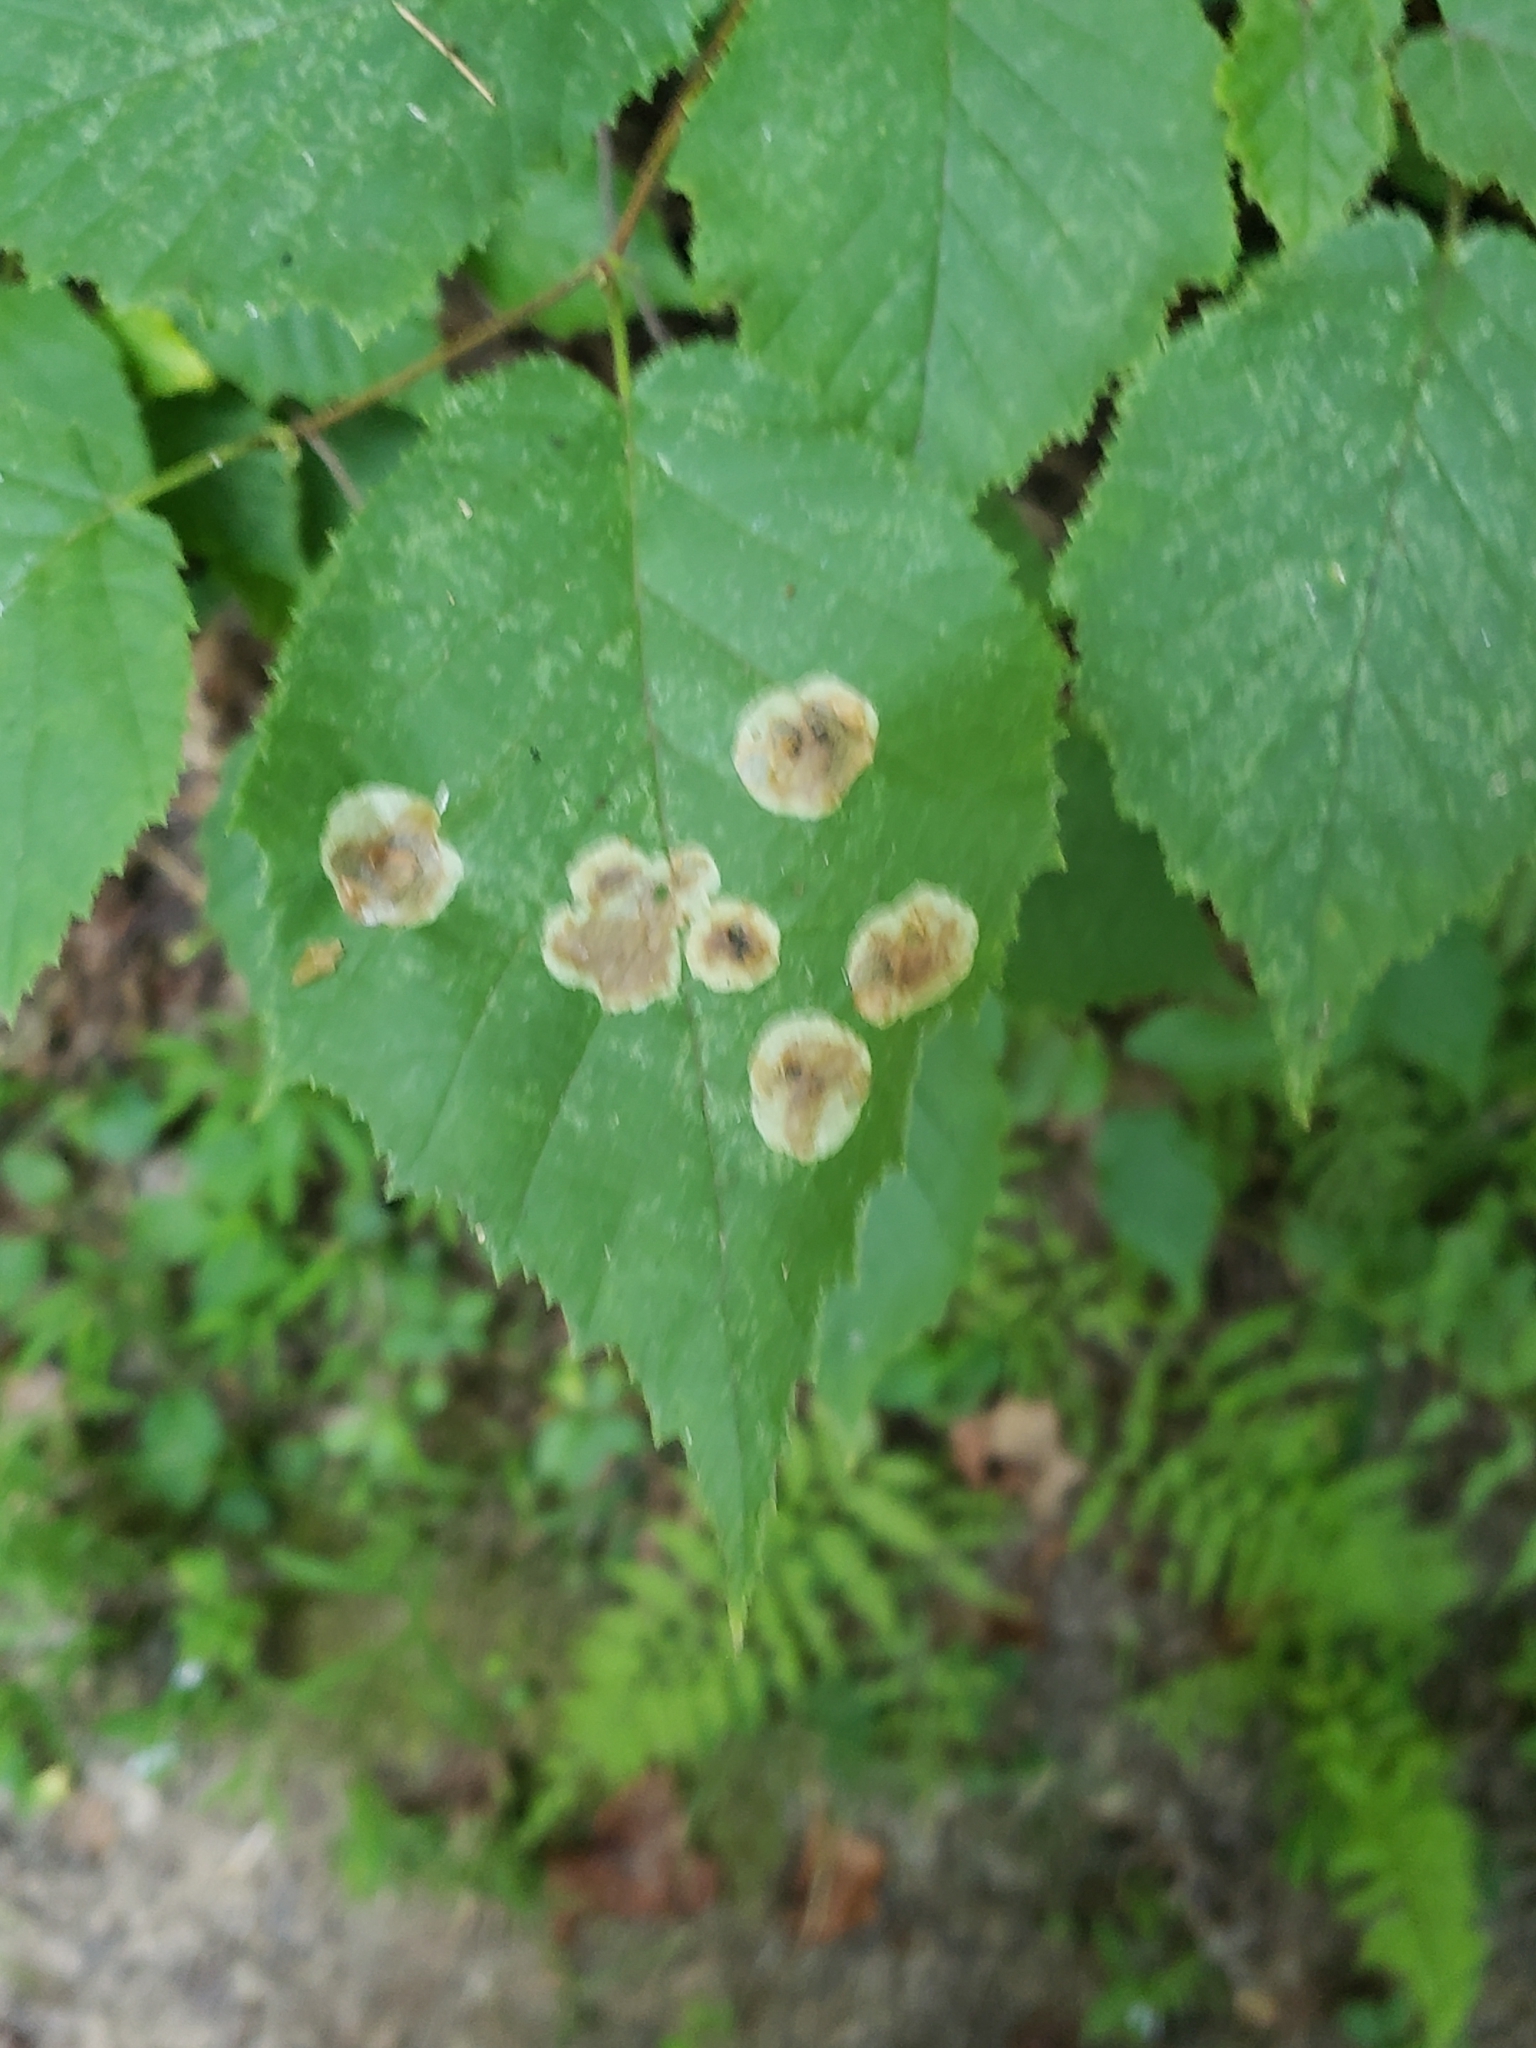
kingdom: Animalia
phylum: Arthropoda
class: Insecta
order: Lepidoptera
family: Gracillariidae
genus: Cameraria
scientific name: Cameraria corylisella
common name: Hazel blotchminer
